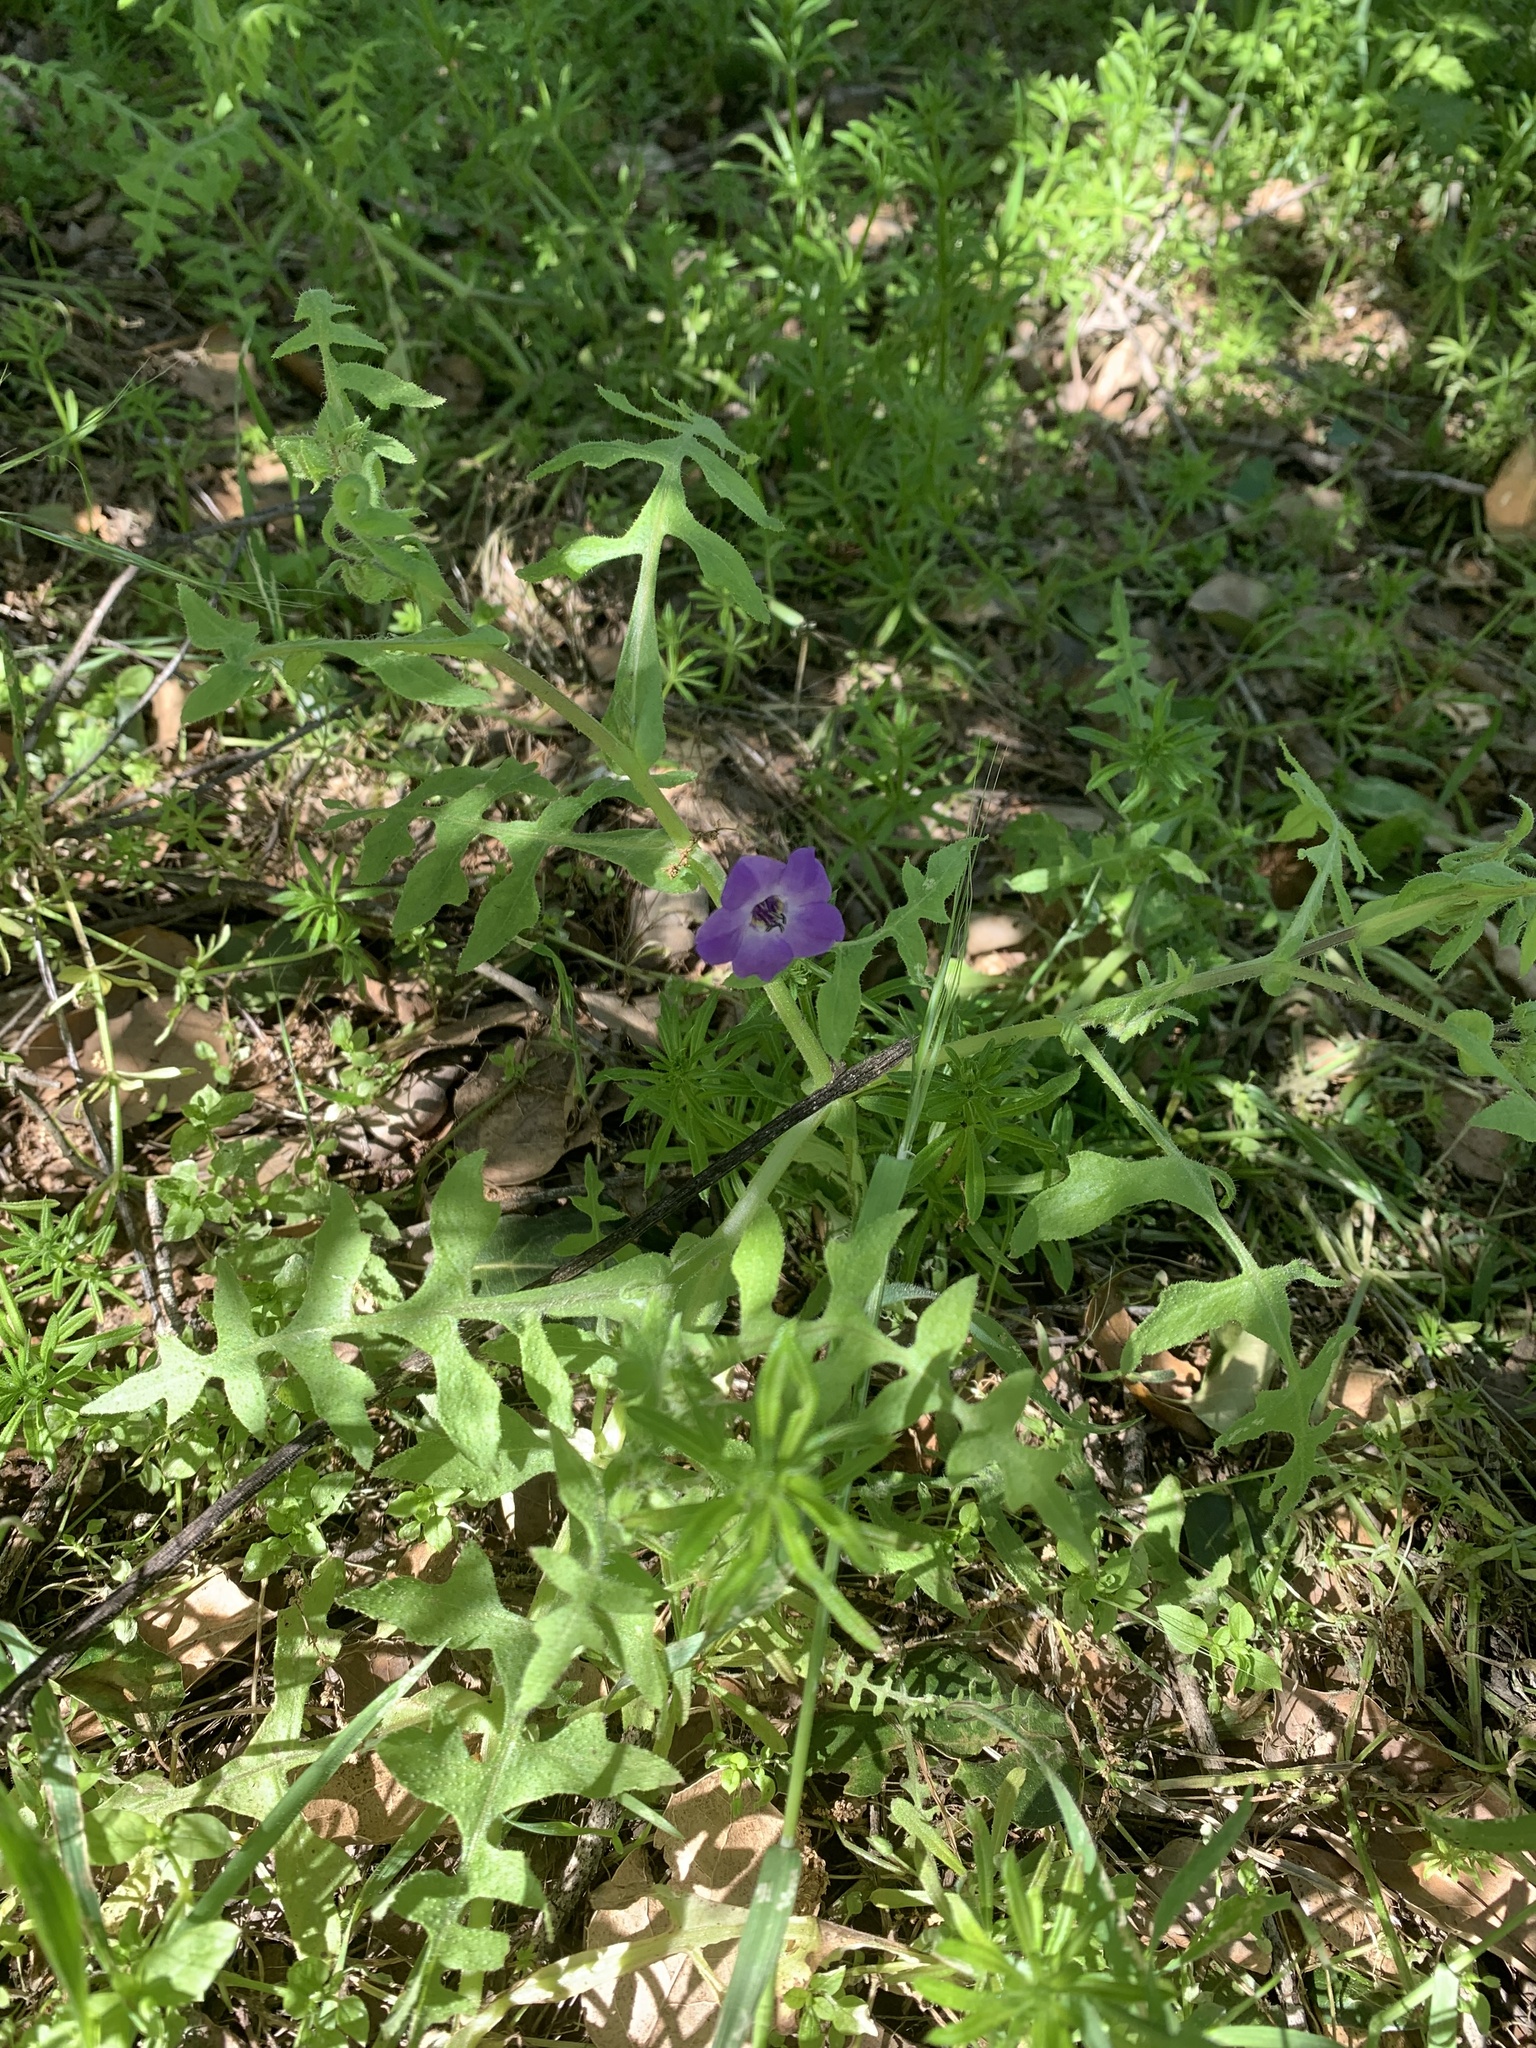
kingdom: Plantae
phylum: Tracheophyta
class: Magnoliopsida
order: Boraginales
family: Hydrophyllaceae
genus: Pholistoma
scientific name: Pholistoma auritum
